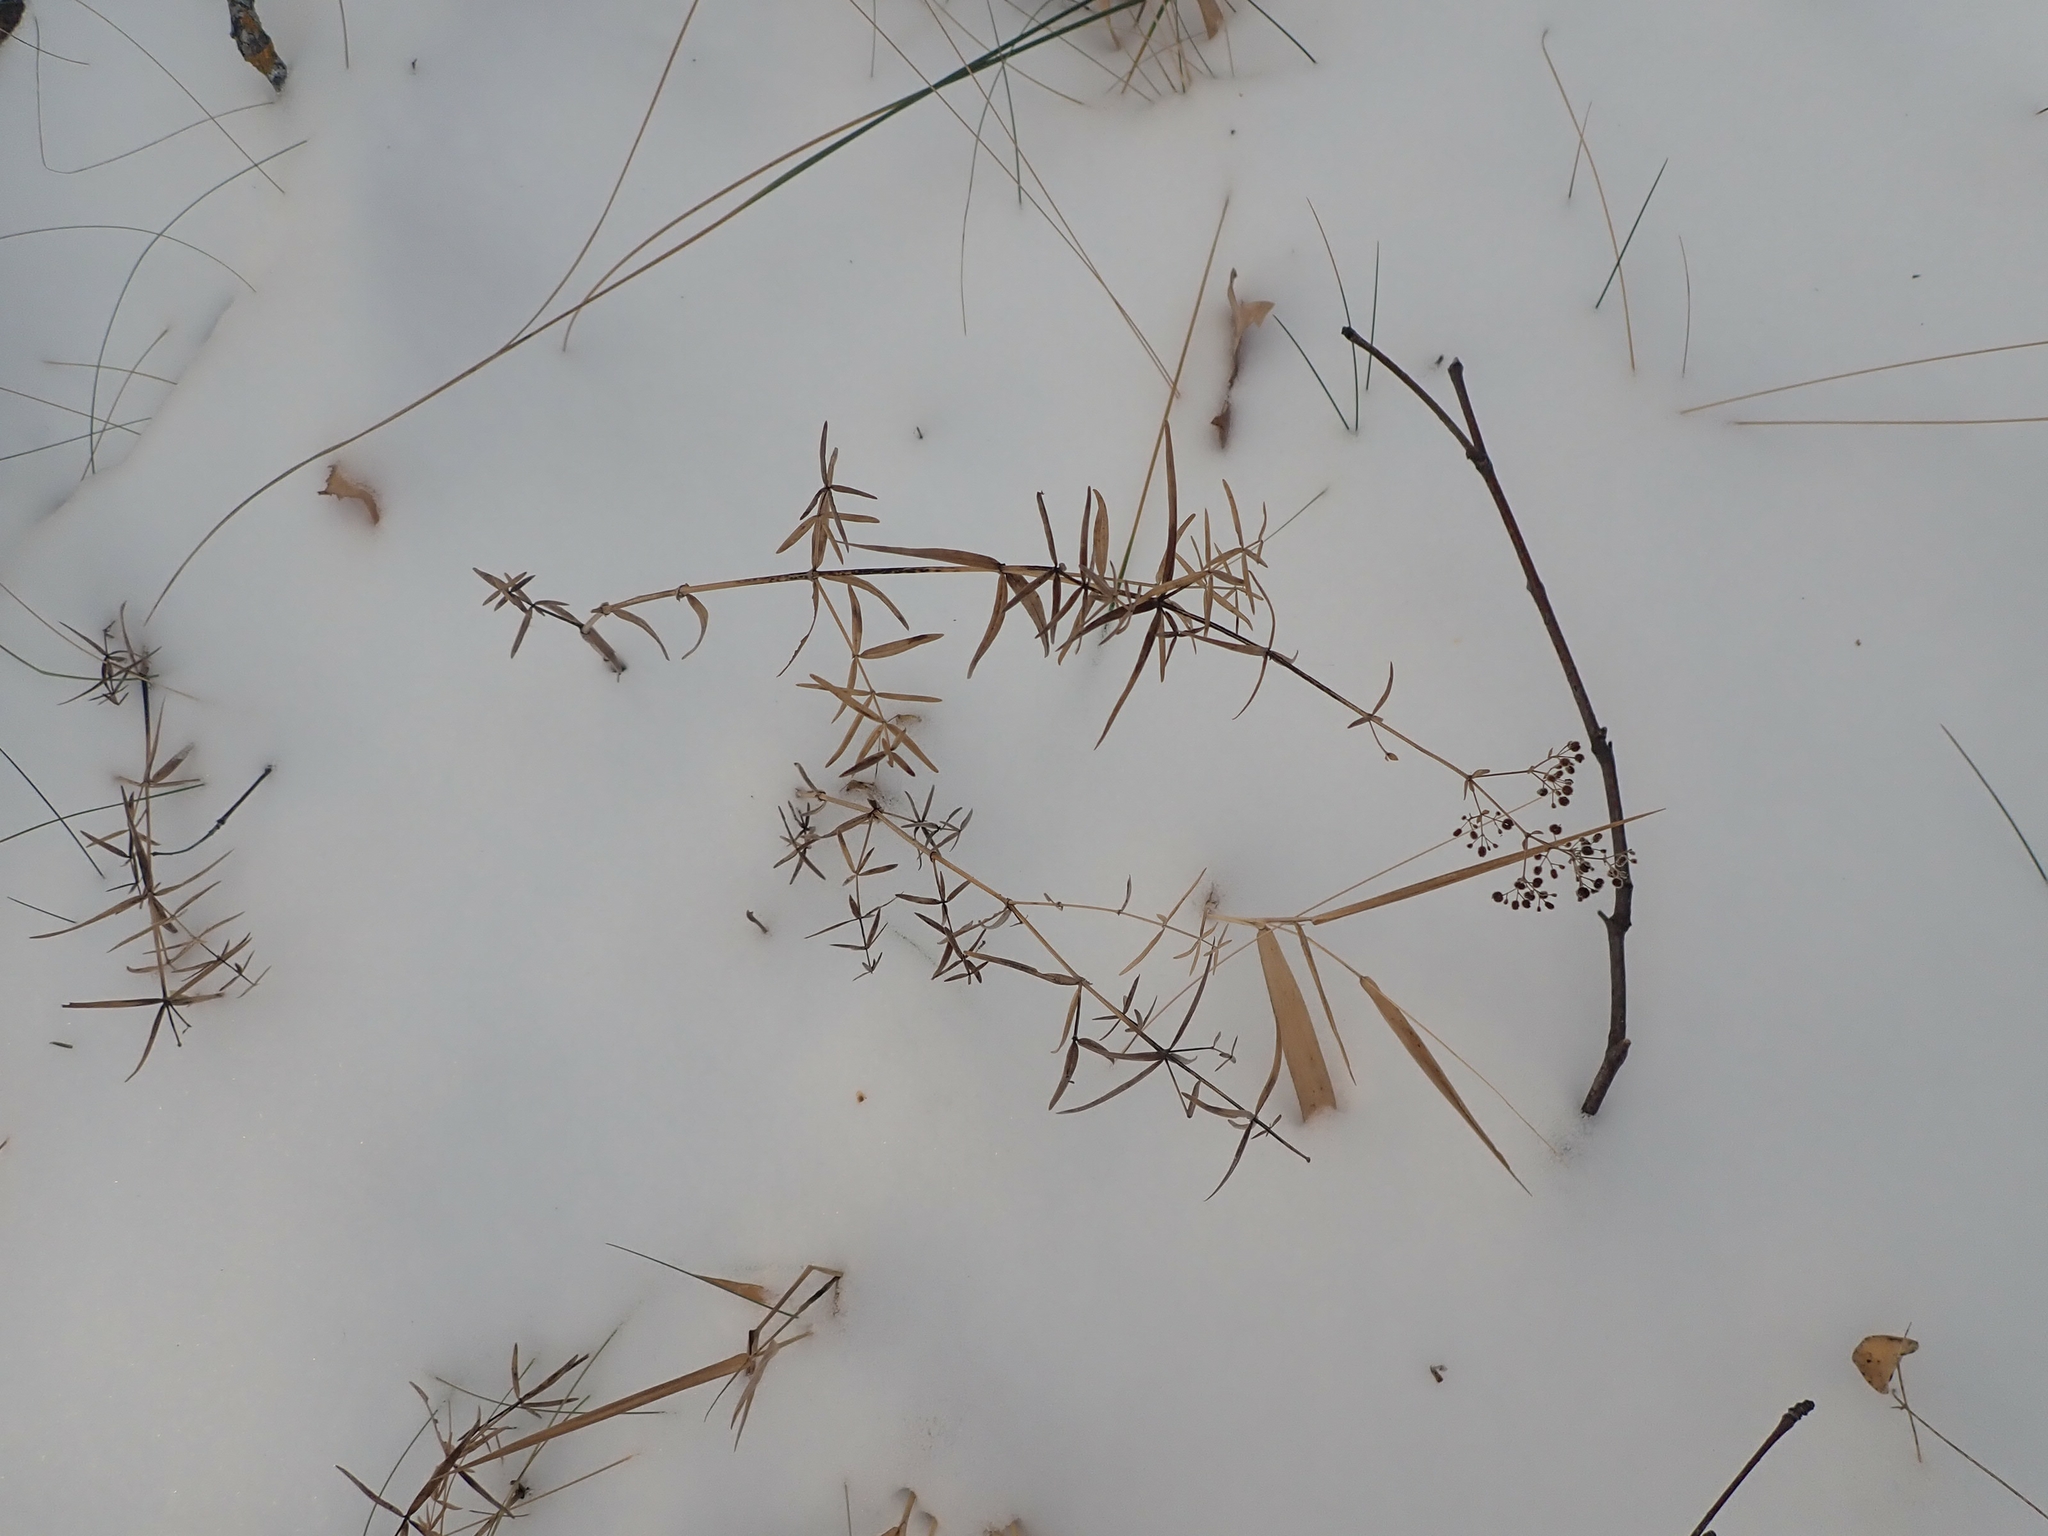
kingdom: Plantae
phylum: Tracheophyta
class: Magnoliopsida
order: Gentianales
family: Rubiaceae
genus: Galium
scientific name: Galium boreale
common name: Northern bedstraw
